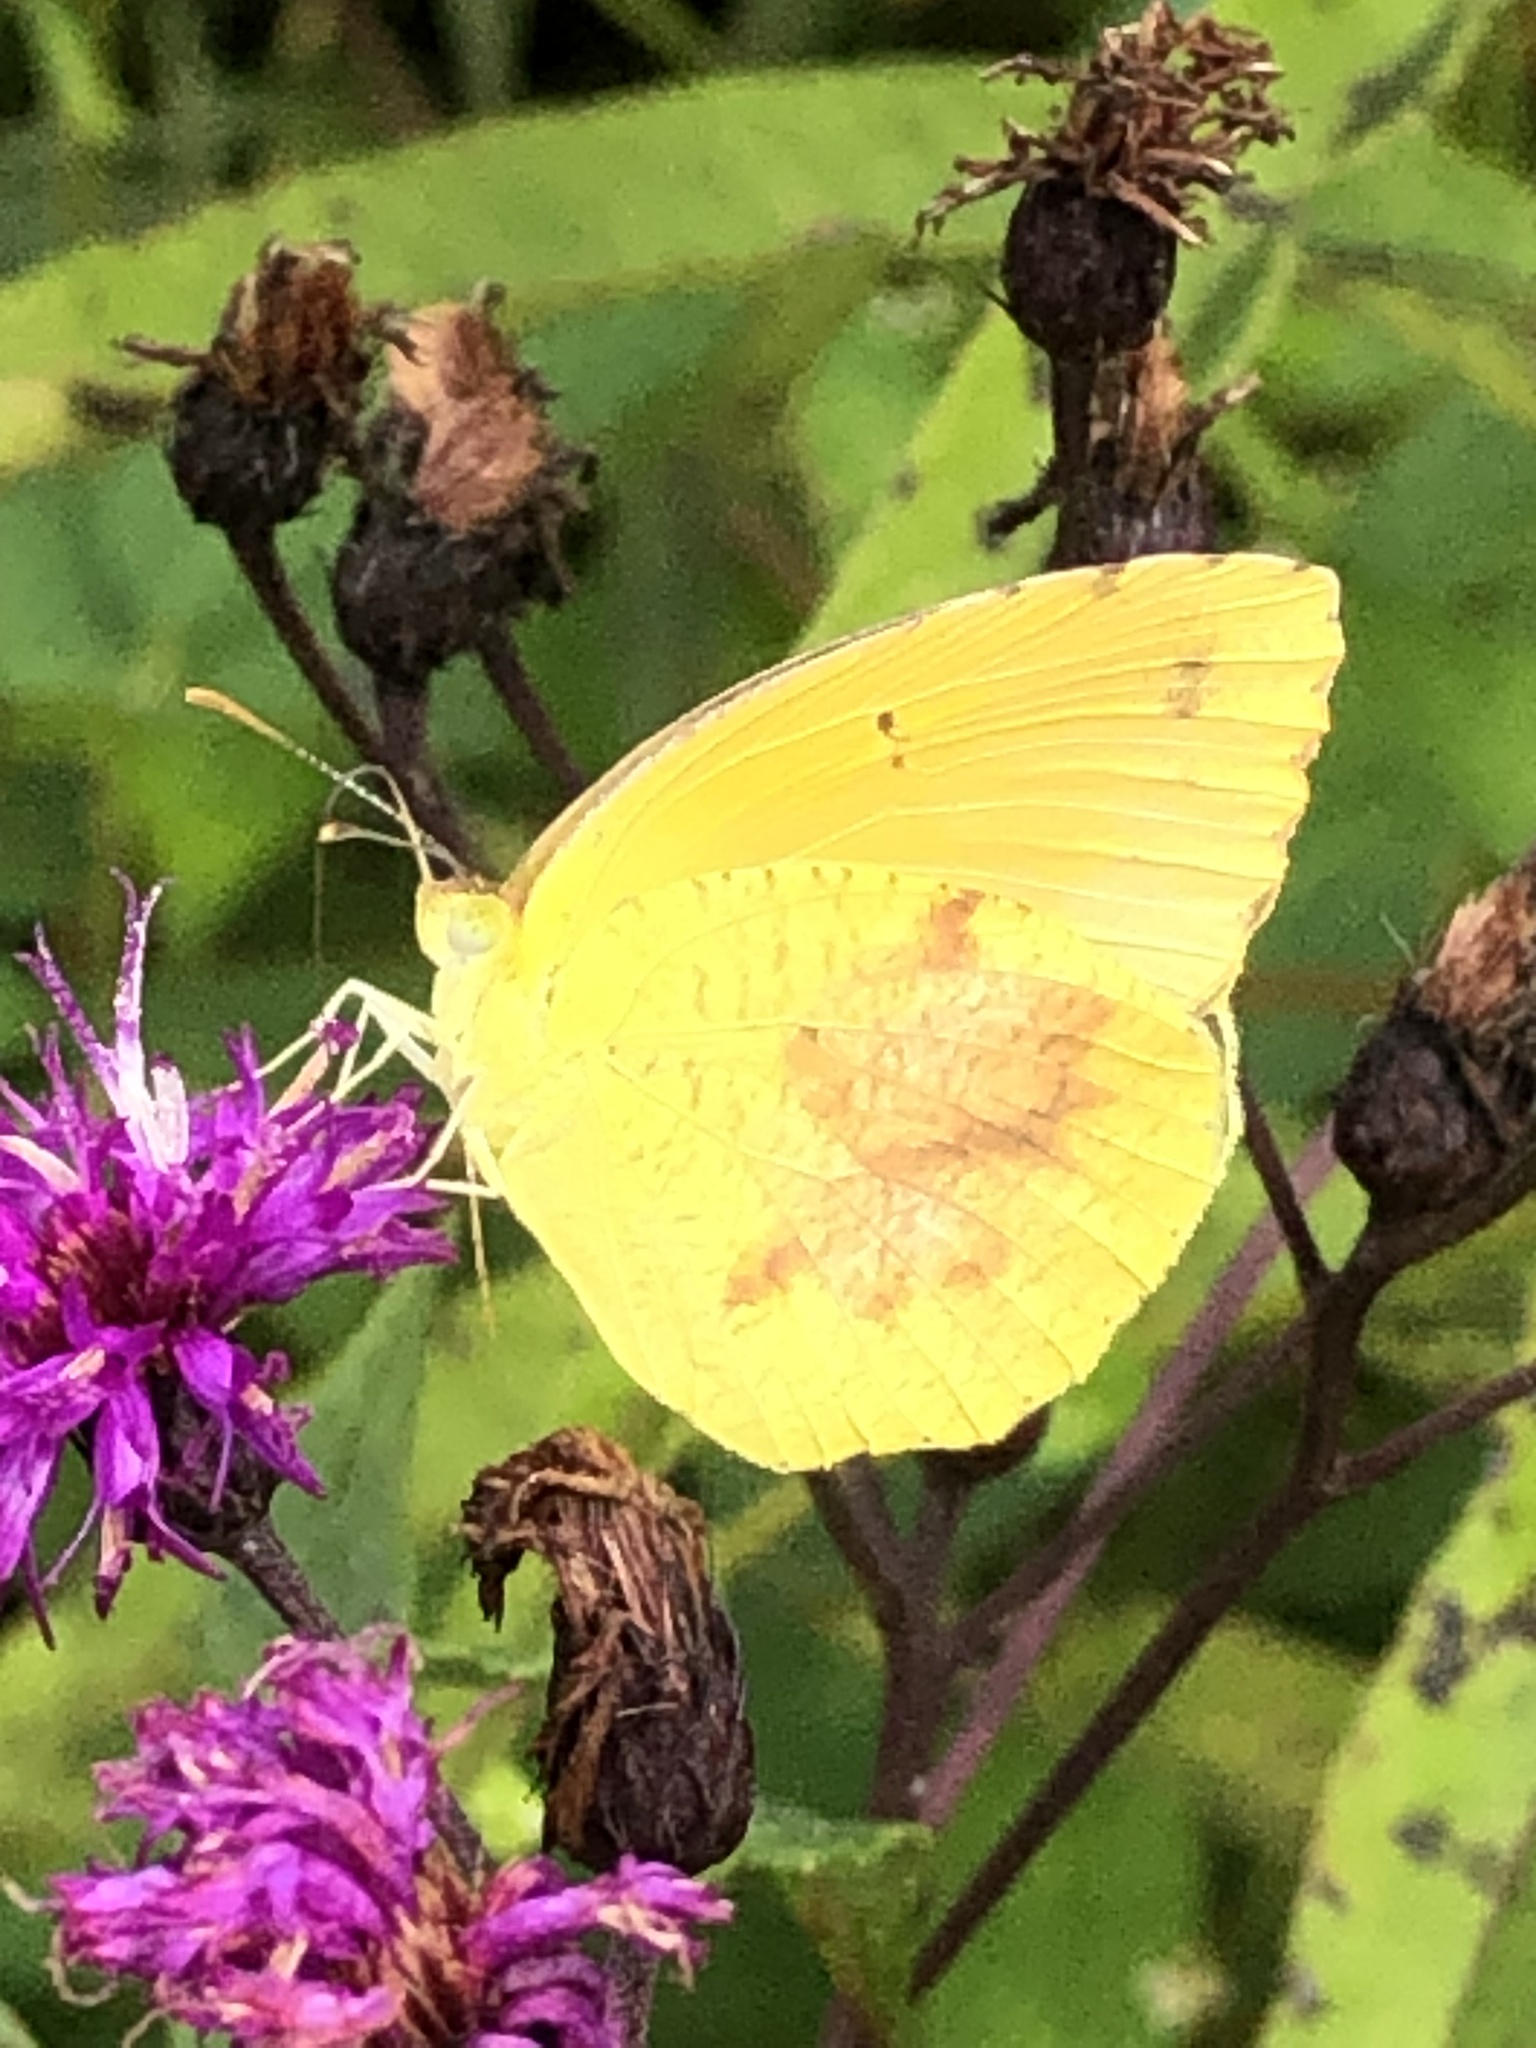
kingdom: Animalia
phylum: Arthropoda
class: Insecta
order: Lepidoptera
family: Pieridae
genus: Abaeis
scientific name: Abaeis nicippe
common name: Sleepy orange
